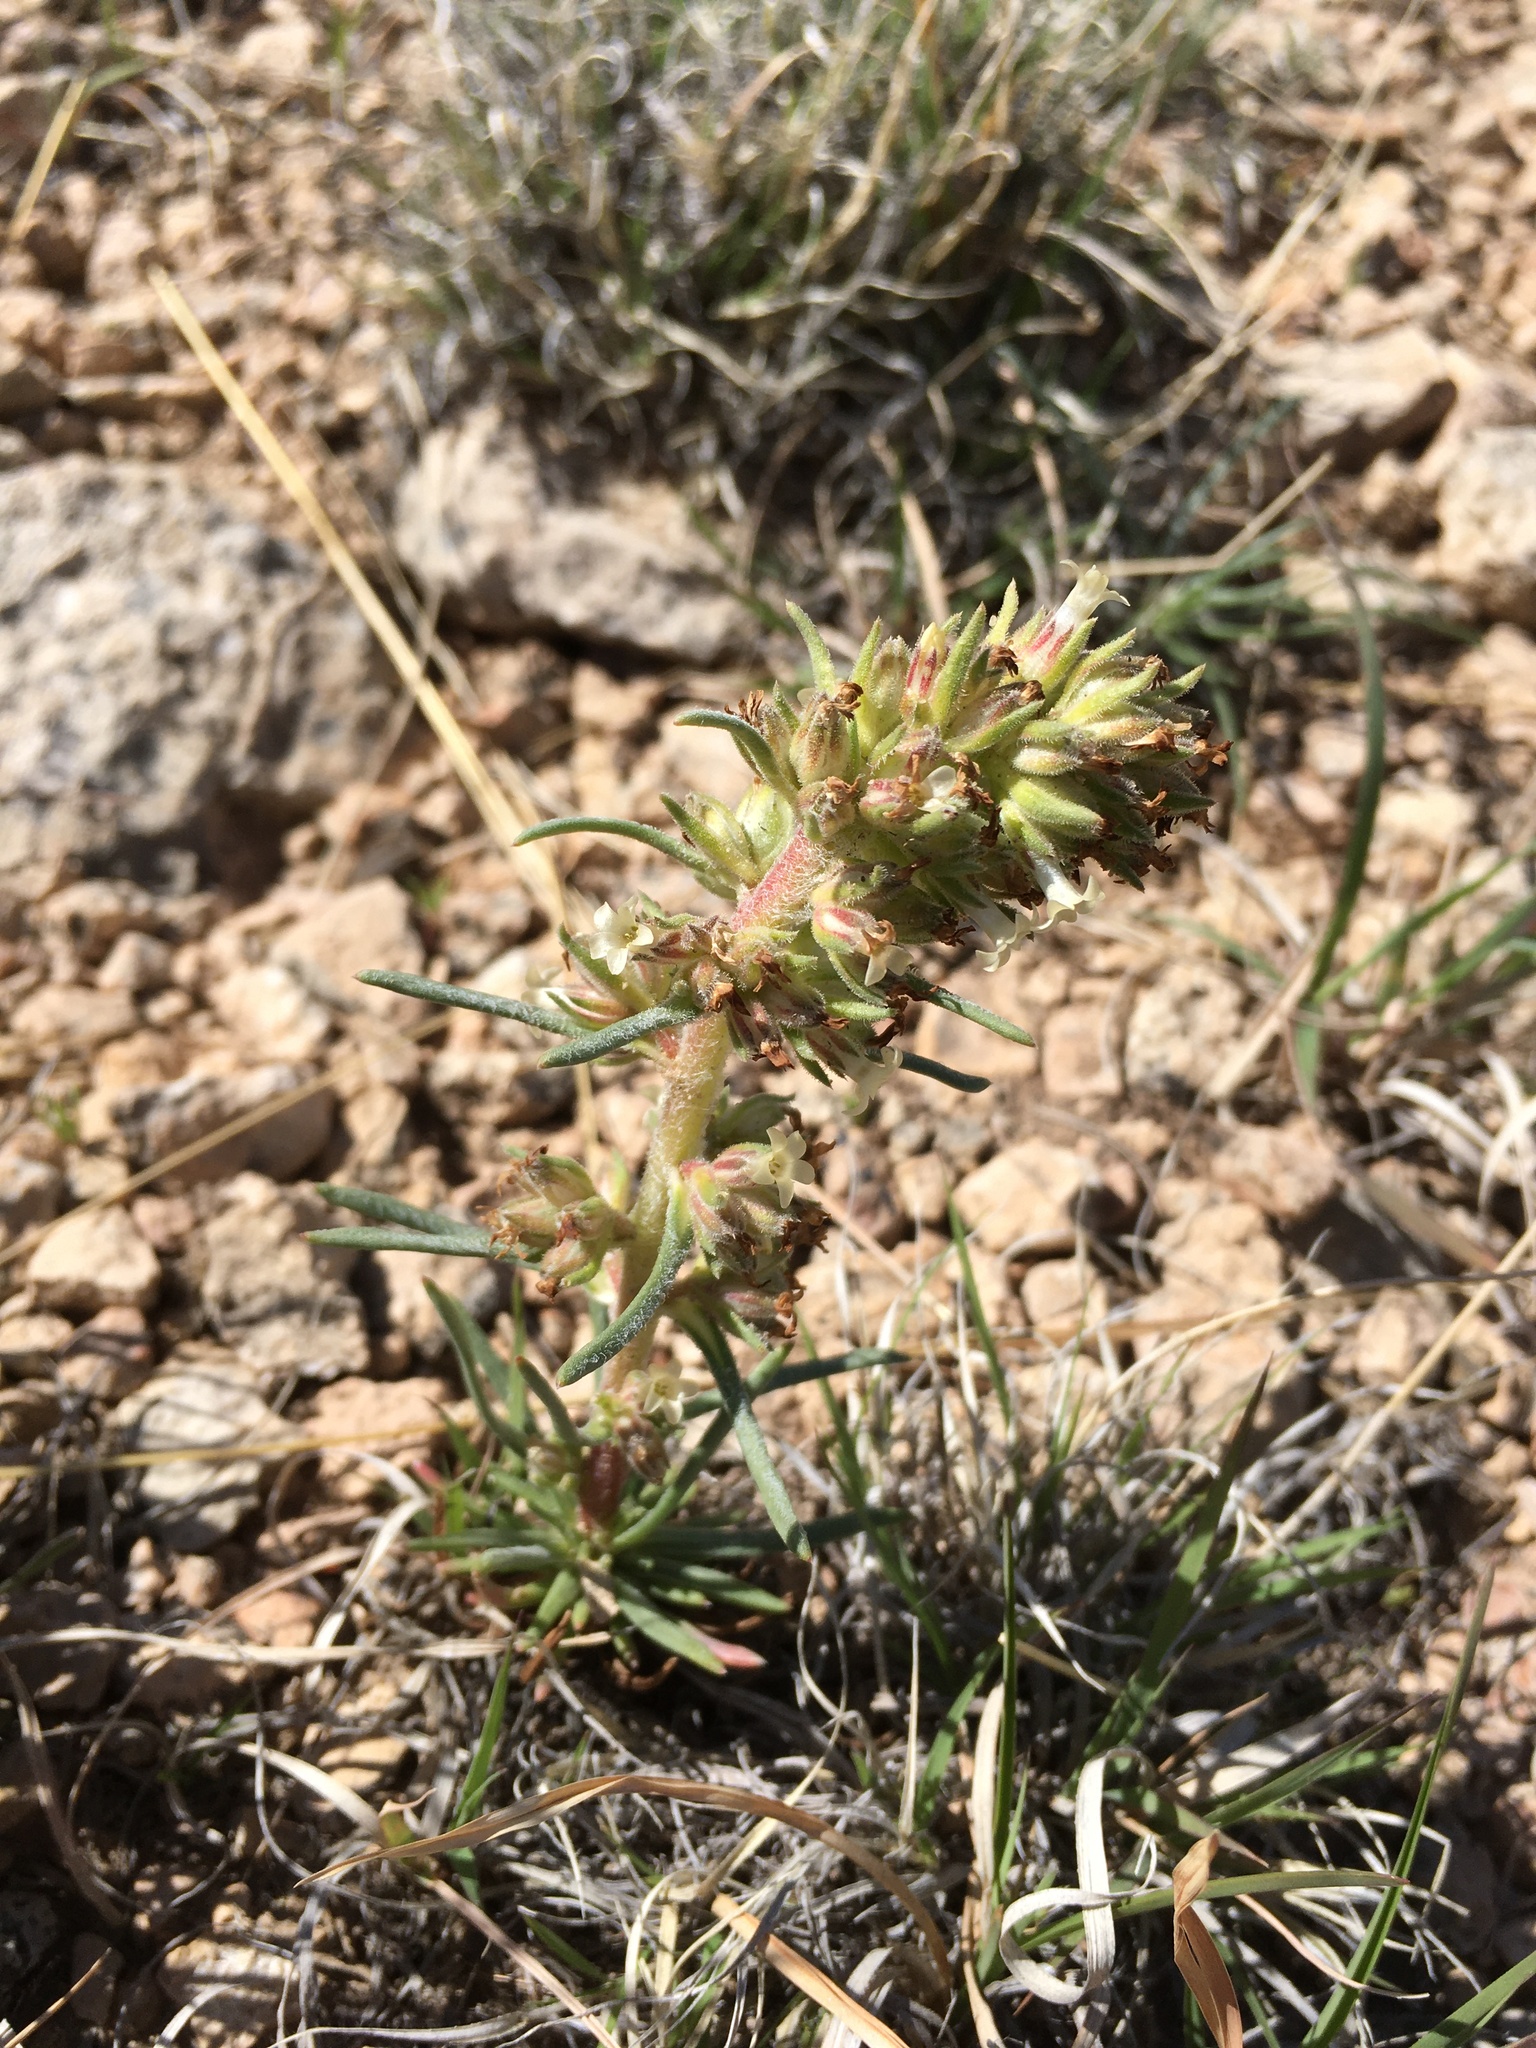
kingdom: Plantae
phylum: Tracheophyta
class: Magnoliopsida
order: Ericales
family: Polemoniaceae
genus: Ipomopsis
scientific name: Ipomopsis spicata
